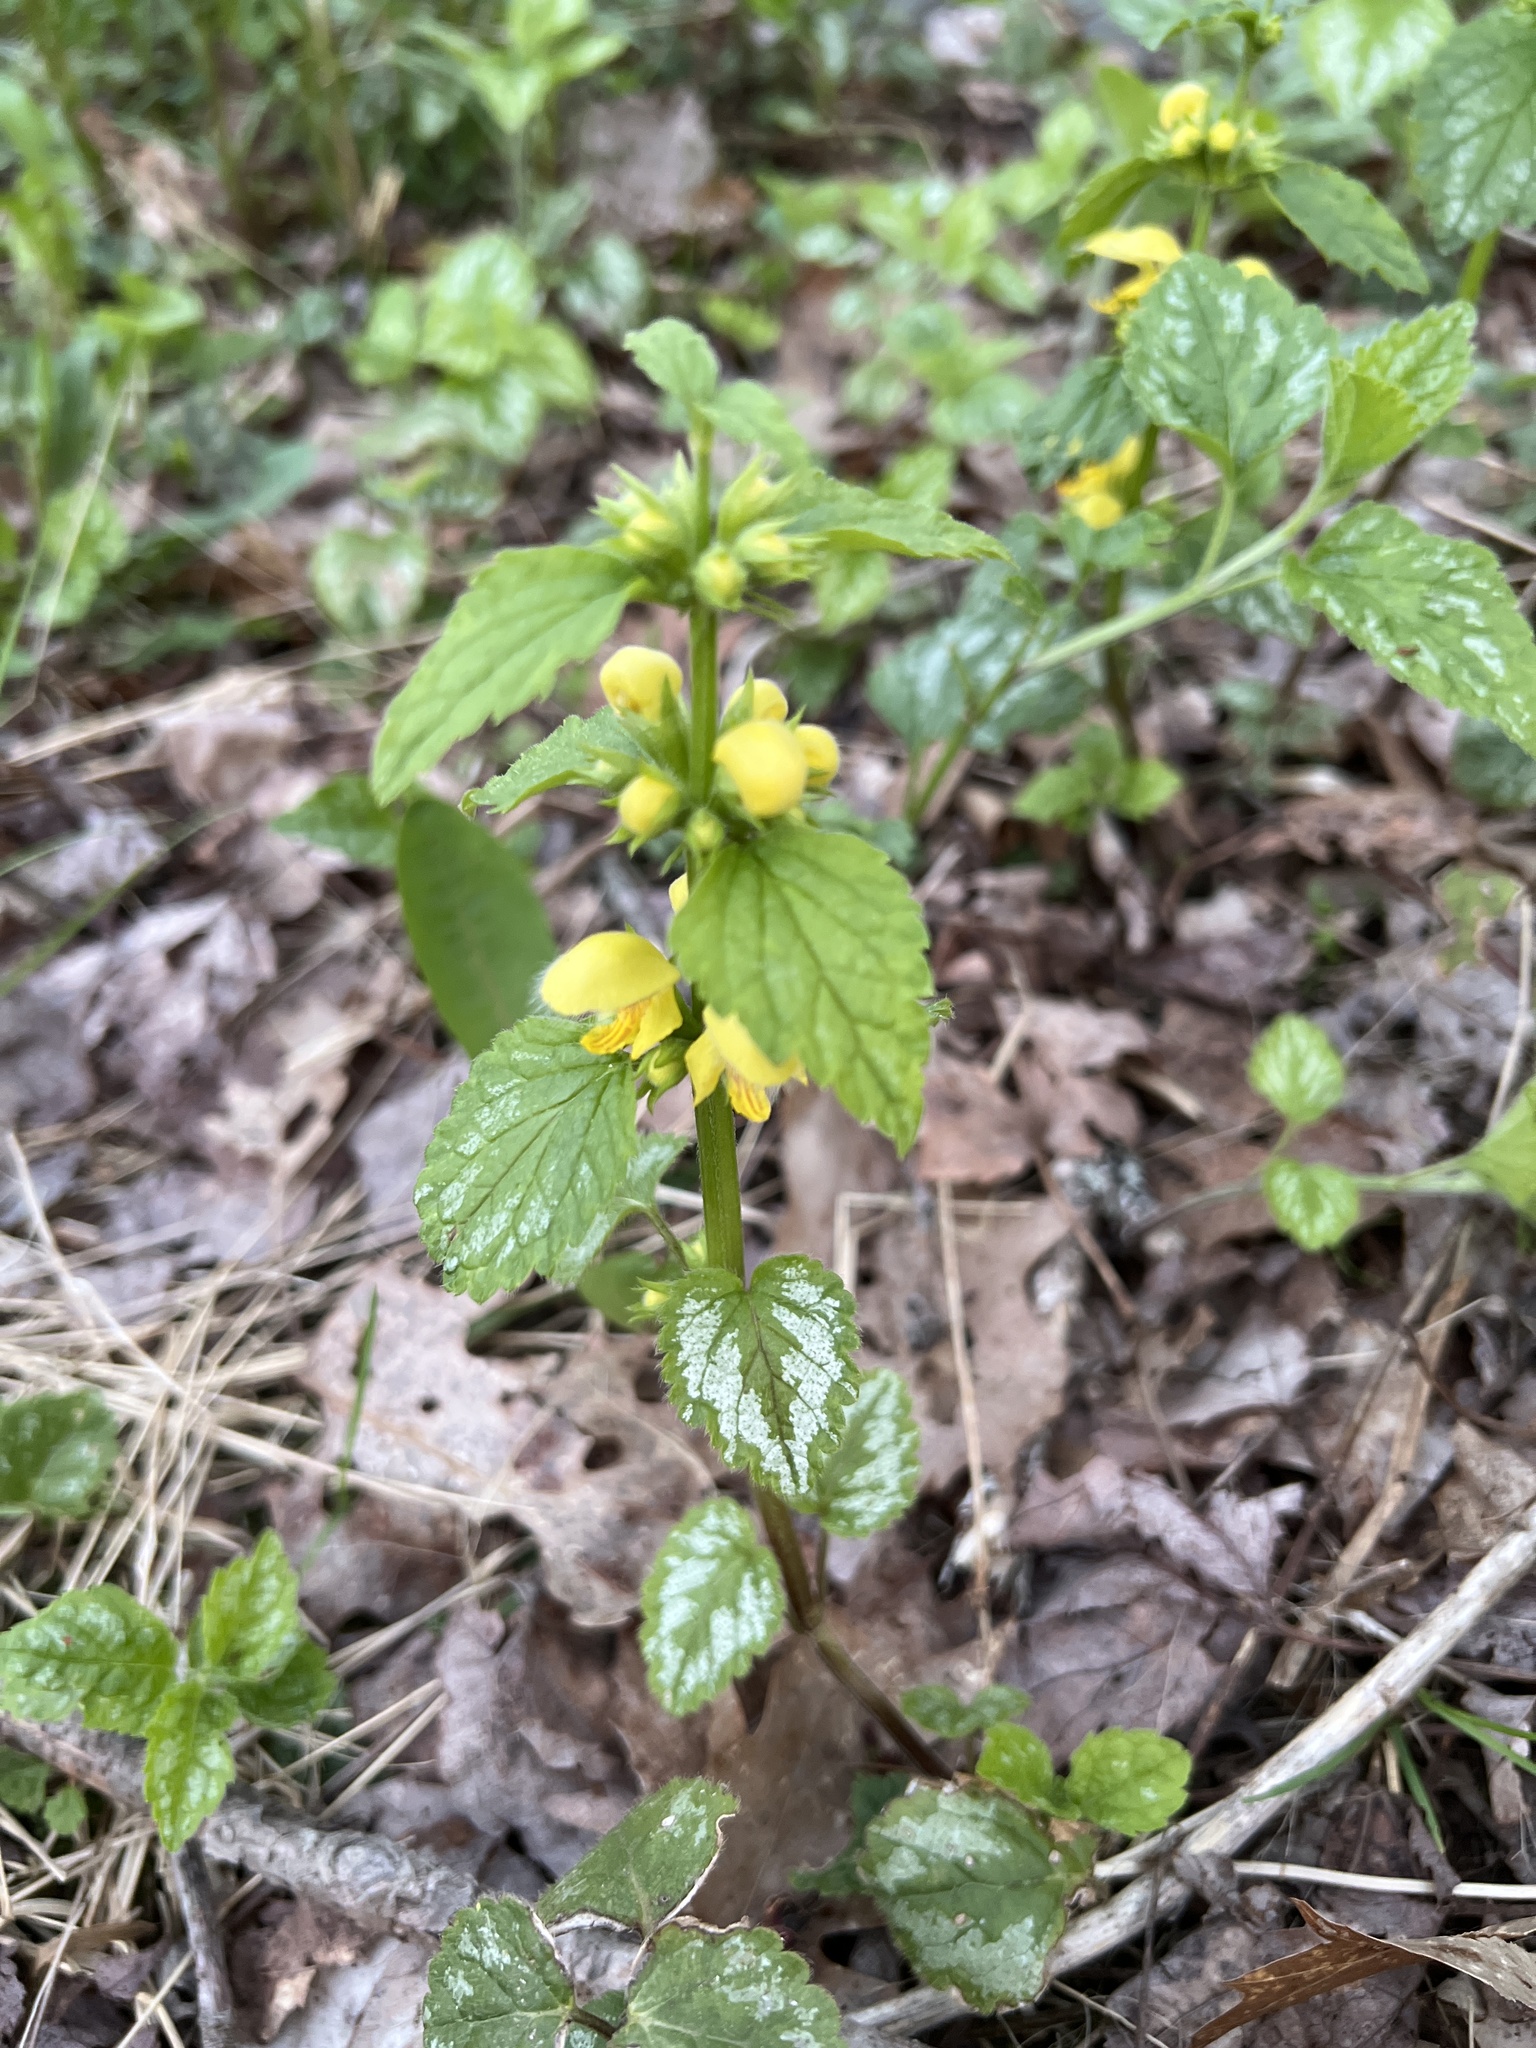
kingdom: Plantae
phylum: Tracheophyta
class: Magnoliopsida
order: Lamiales
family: Lamiaceae
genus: Lamium
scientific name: Lamium galeobdolon
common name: Yellow archangel
